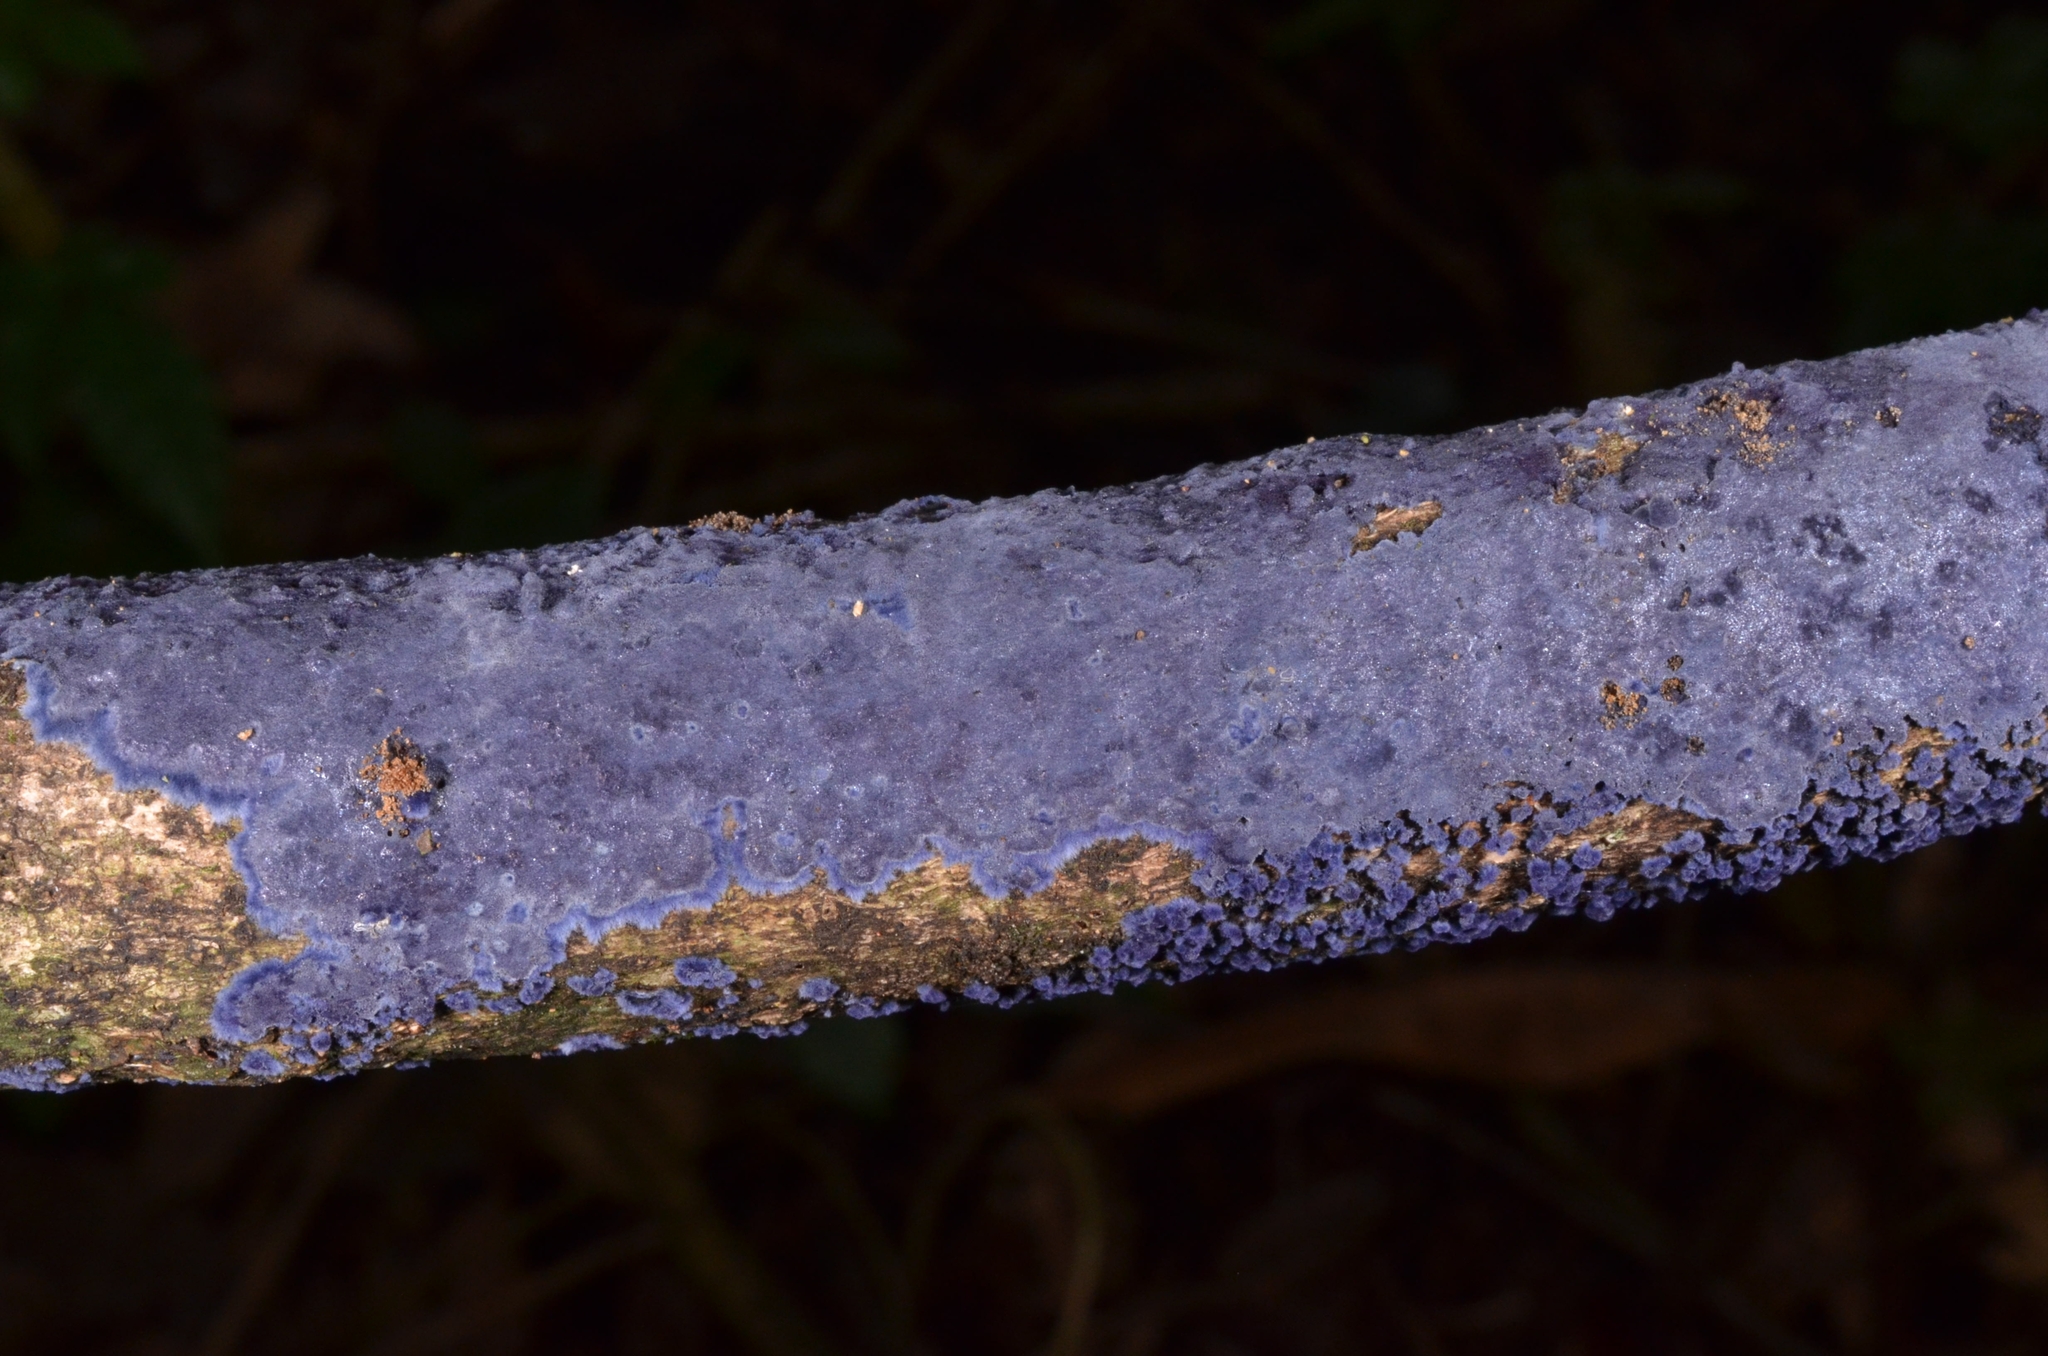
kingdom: Fungi
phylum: Basidiomycota
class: Agaricomycetes
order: Polyporales
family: Phanerochaetaceae
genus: Terana
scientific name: Terana coerulea
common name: Cobalt crust
